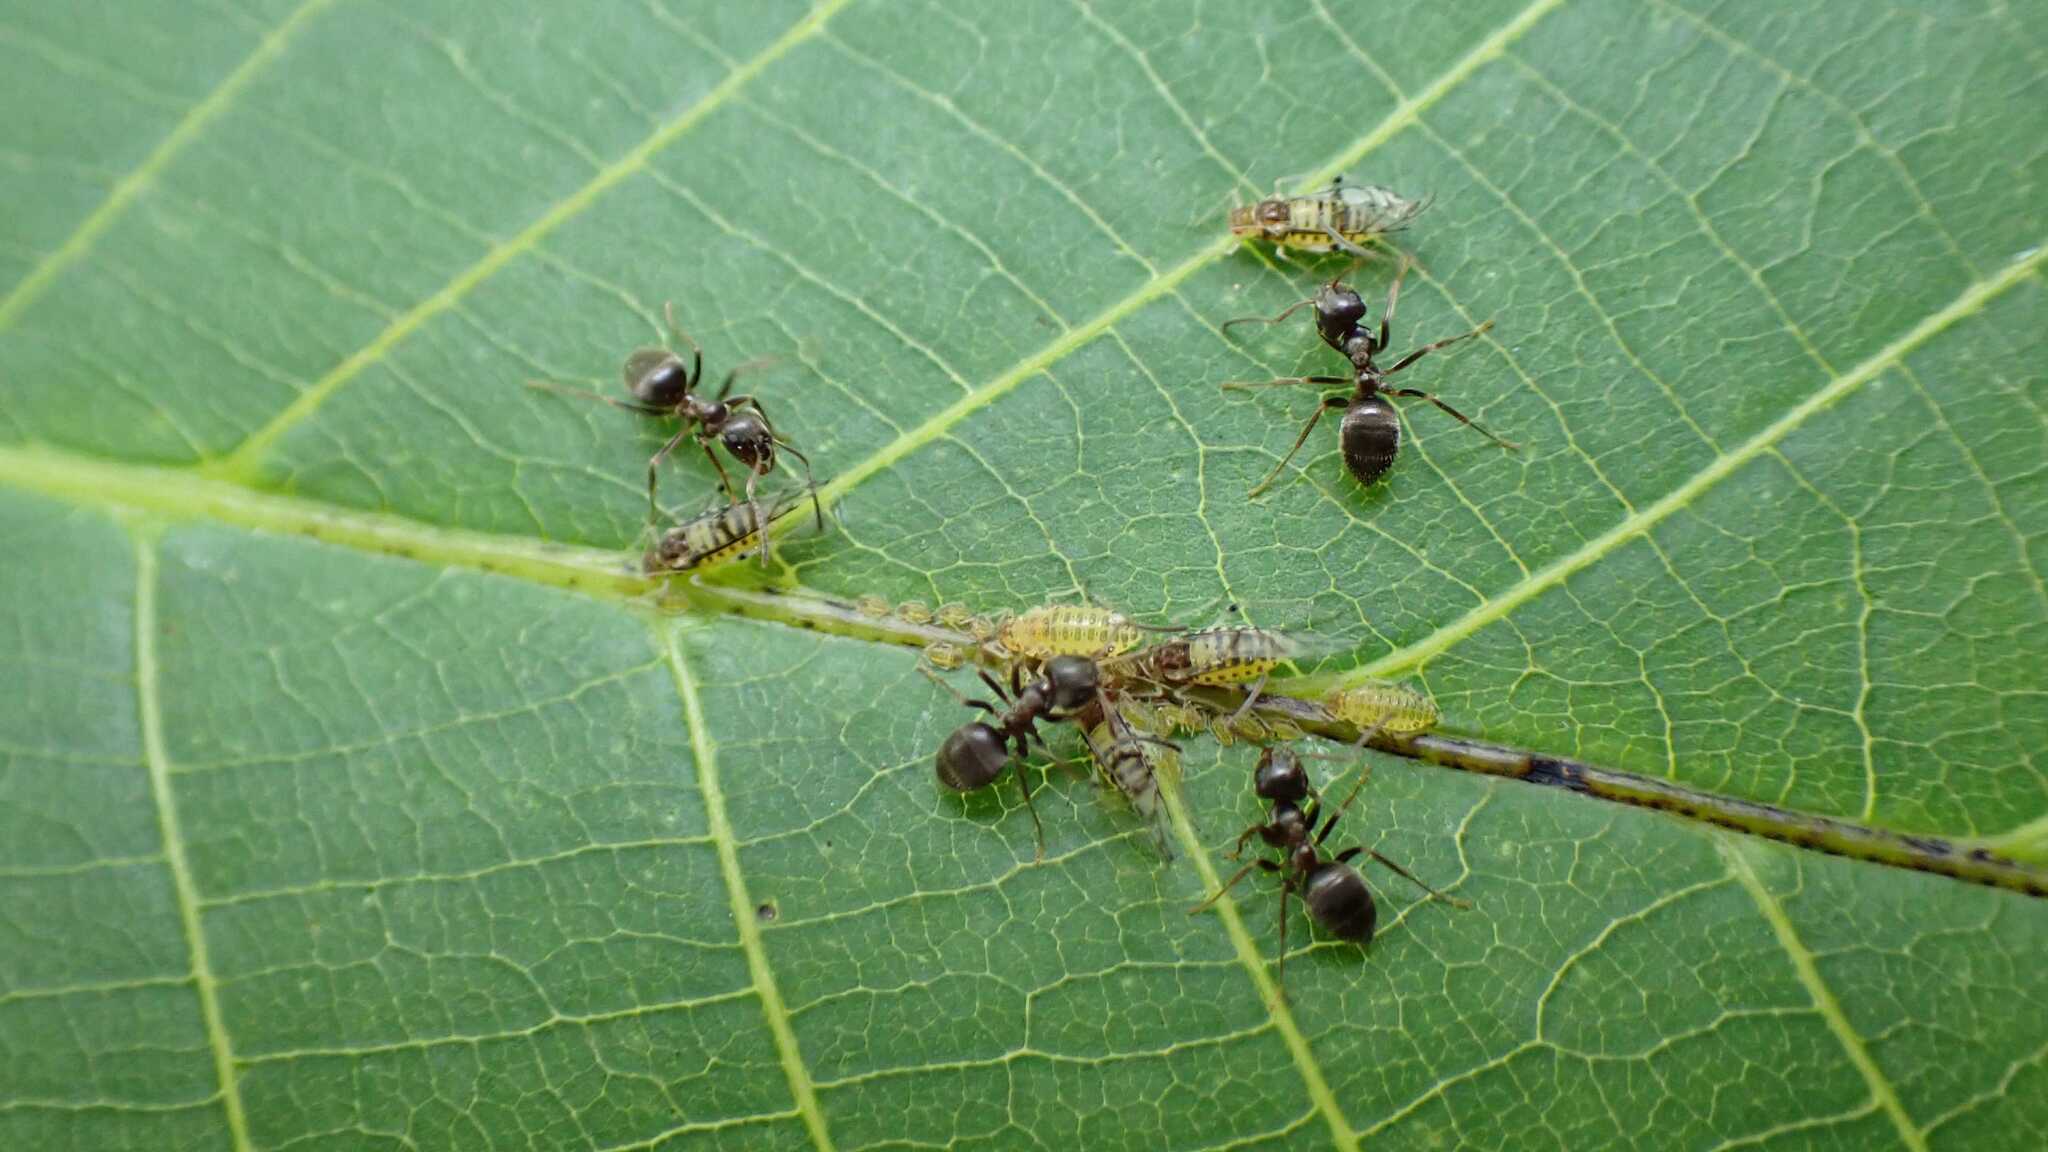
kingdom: Animalia
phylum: Arthropoda
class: Insecta
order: Hemiptera
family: Aphididae
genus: Panaphis
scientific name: Panaphis juglandis
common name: Large walnut aphid
